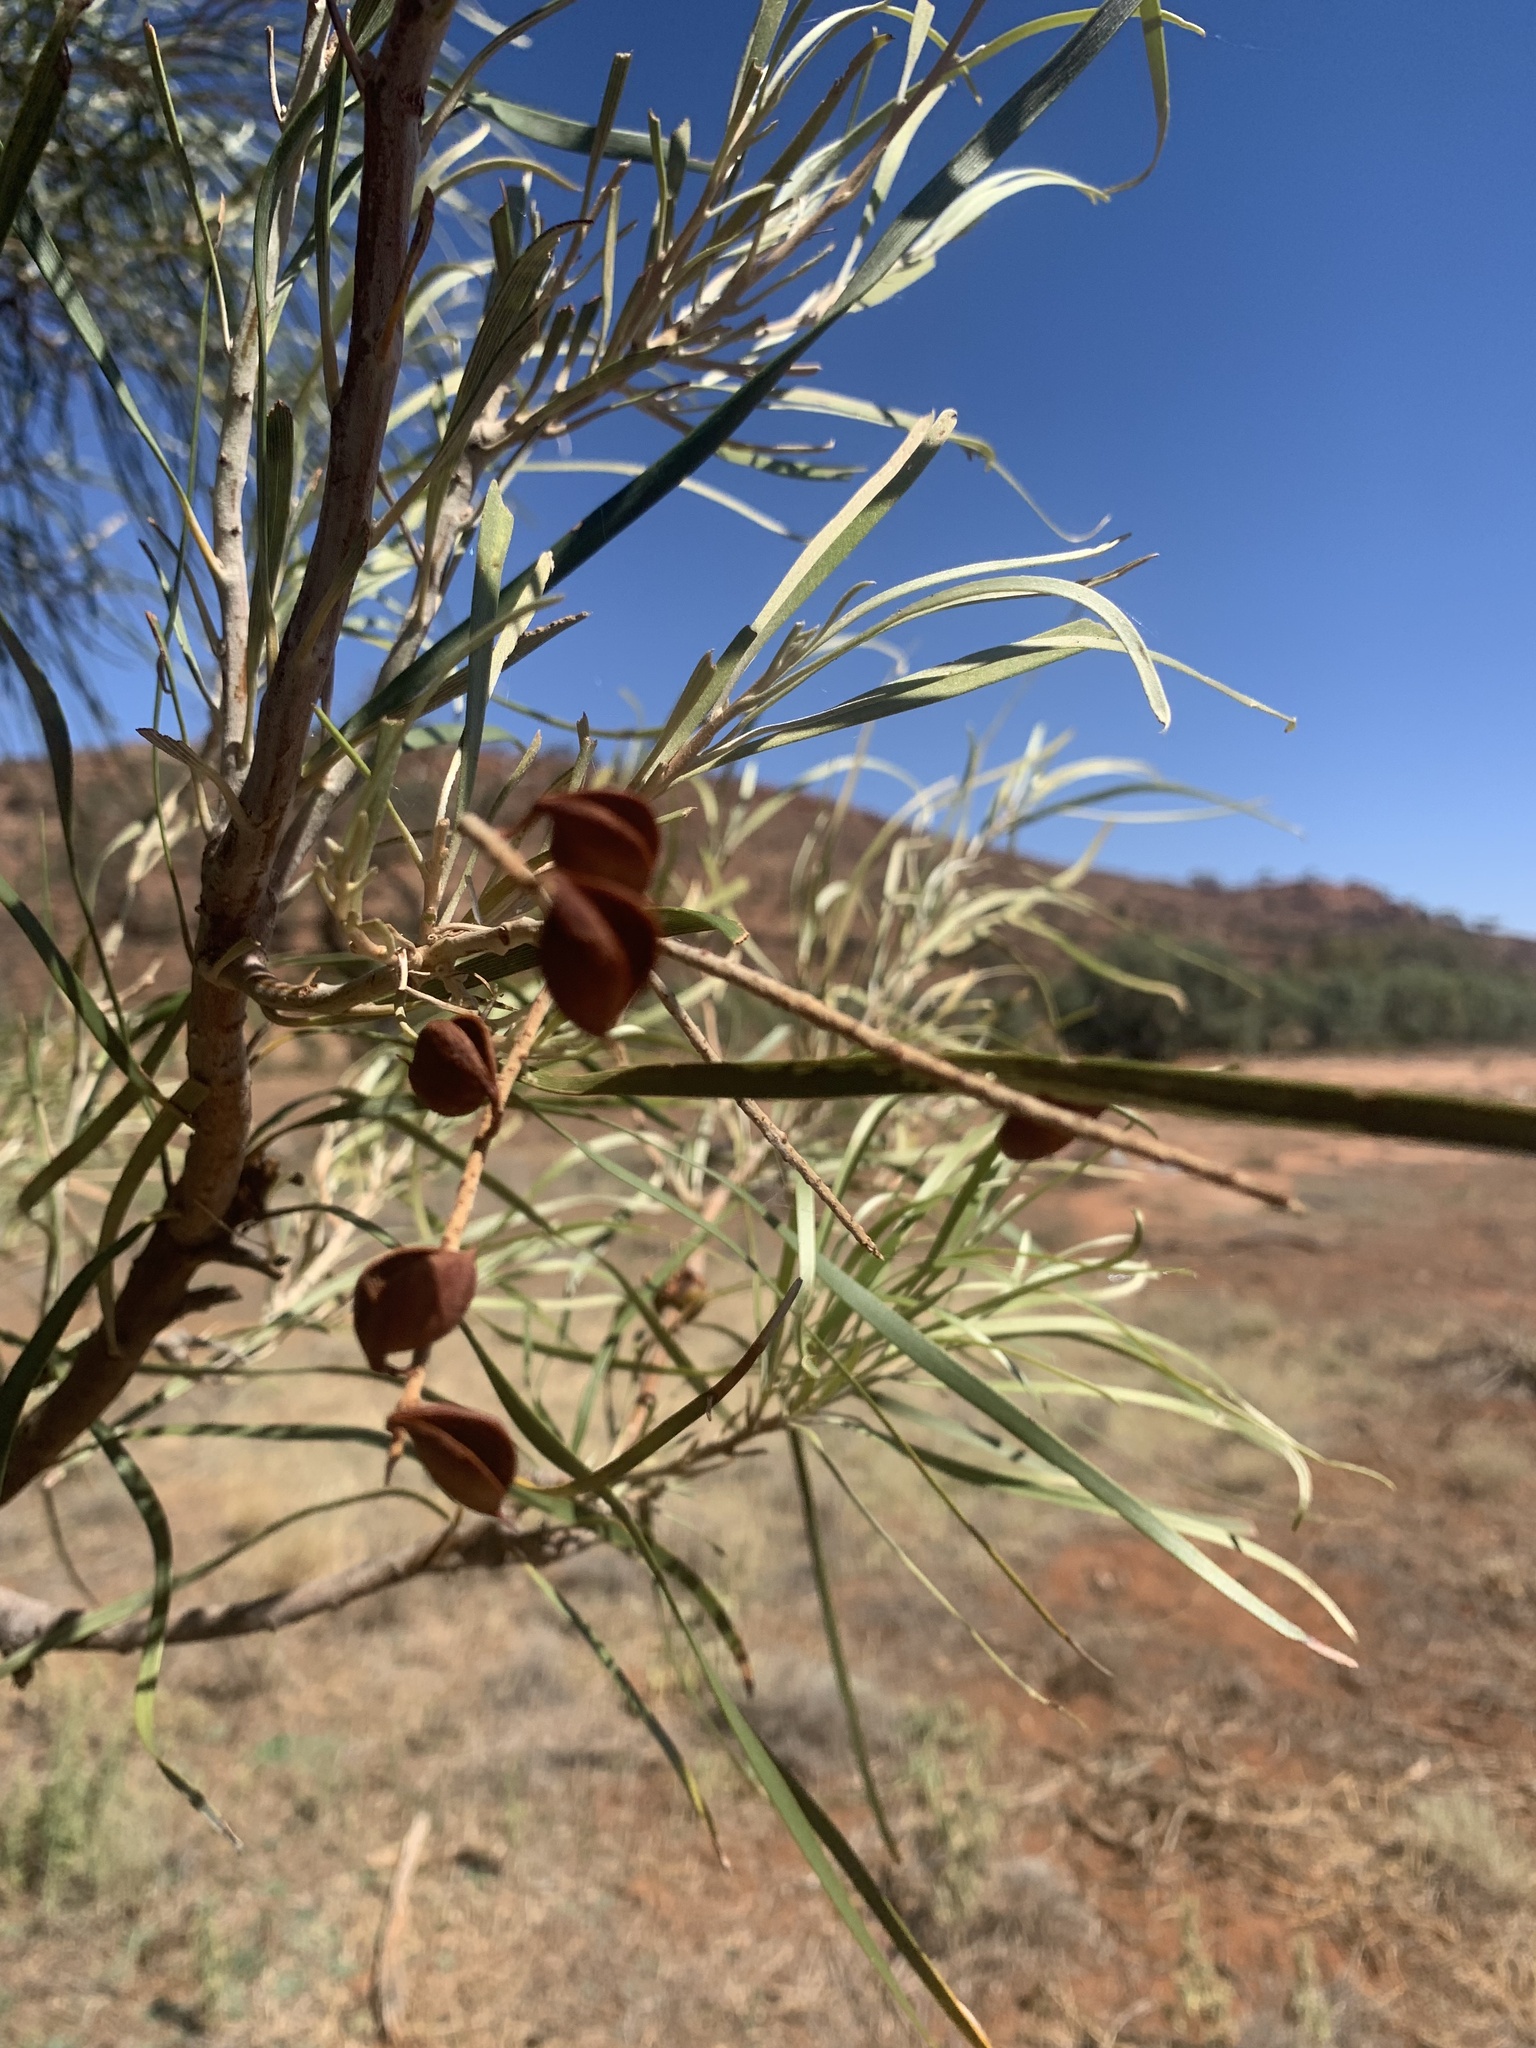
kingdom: Plantae
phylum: Tracheophyta
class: Magnoliopsida
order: Proteales
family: Proteaceae
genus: Grevillea
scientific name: Grevillea striata
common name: Beefwood
